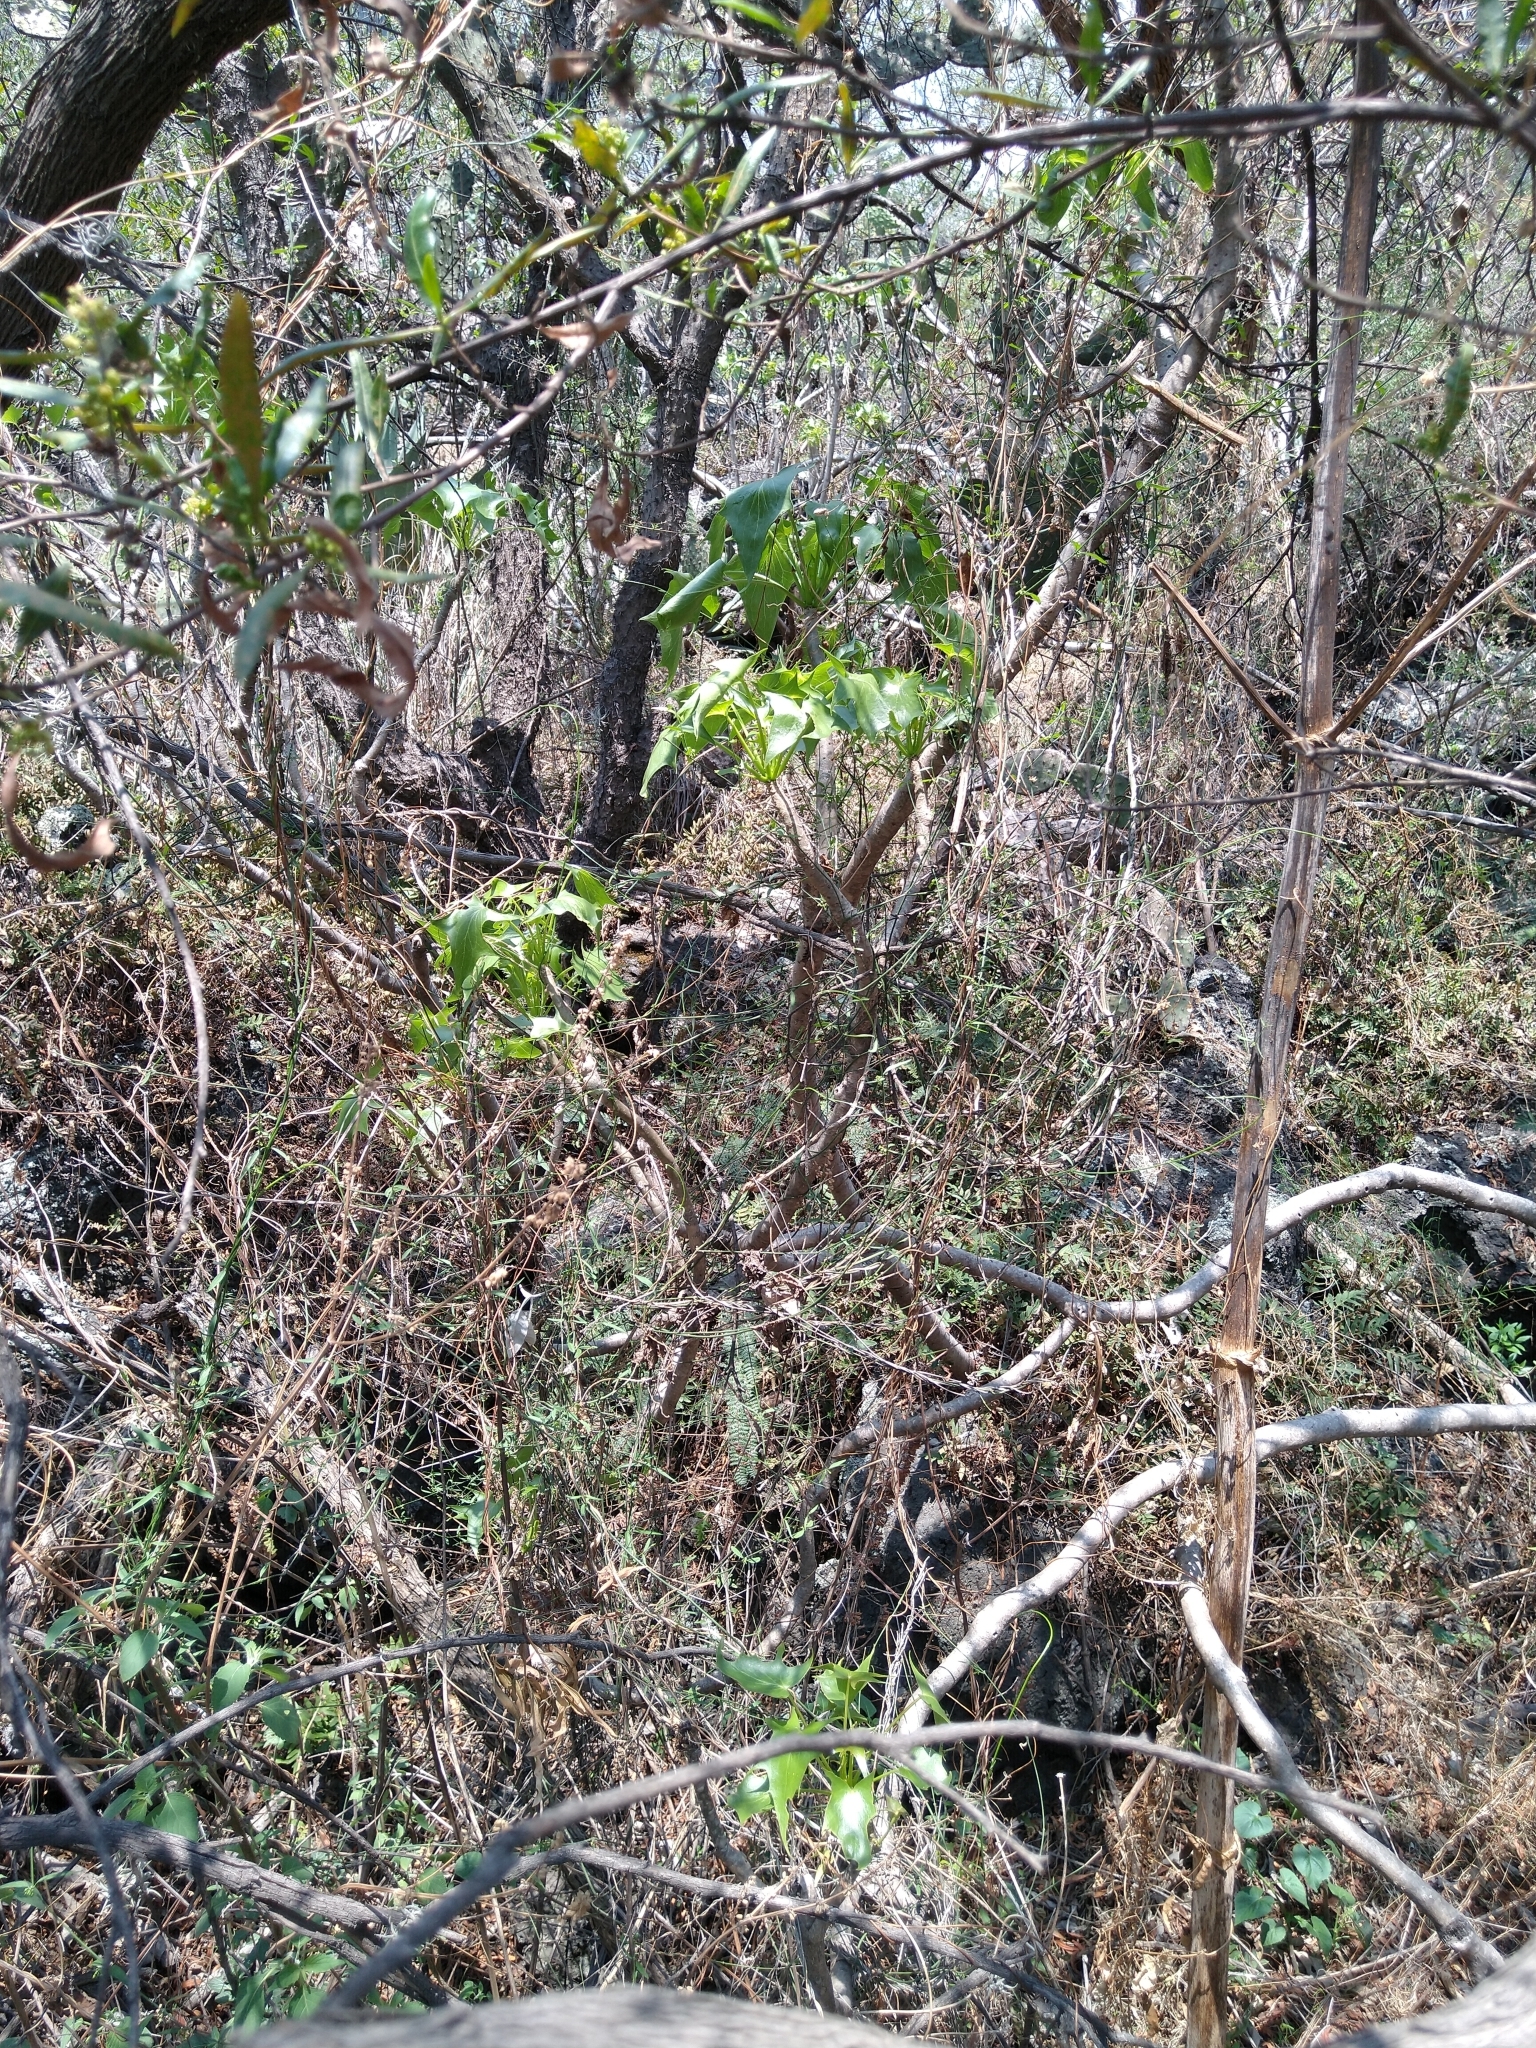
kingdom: Plantae
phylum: Tracheophyta
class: Magnoliopsida
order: Asterales
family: Asteraceae
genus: Pittocaulon
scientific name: Pittocaulon praecox
